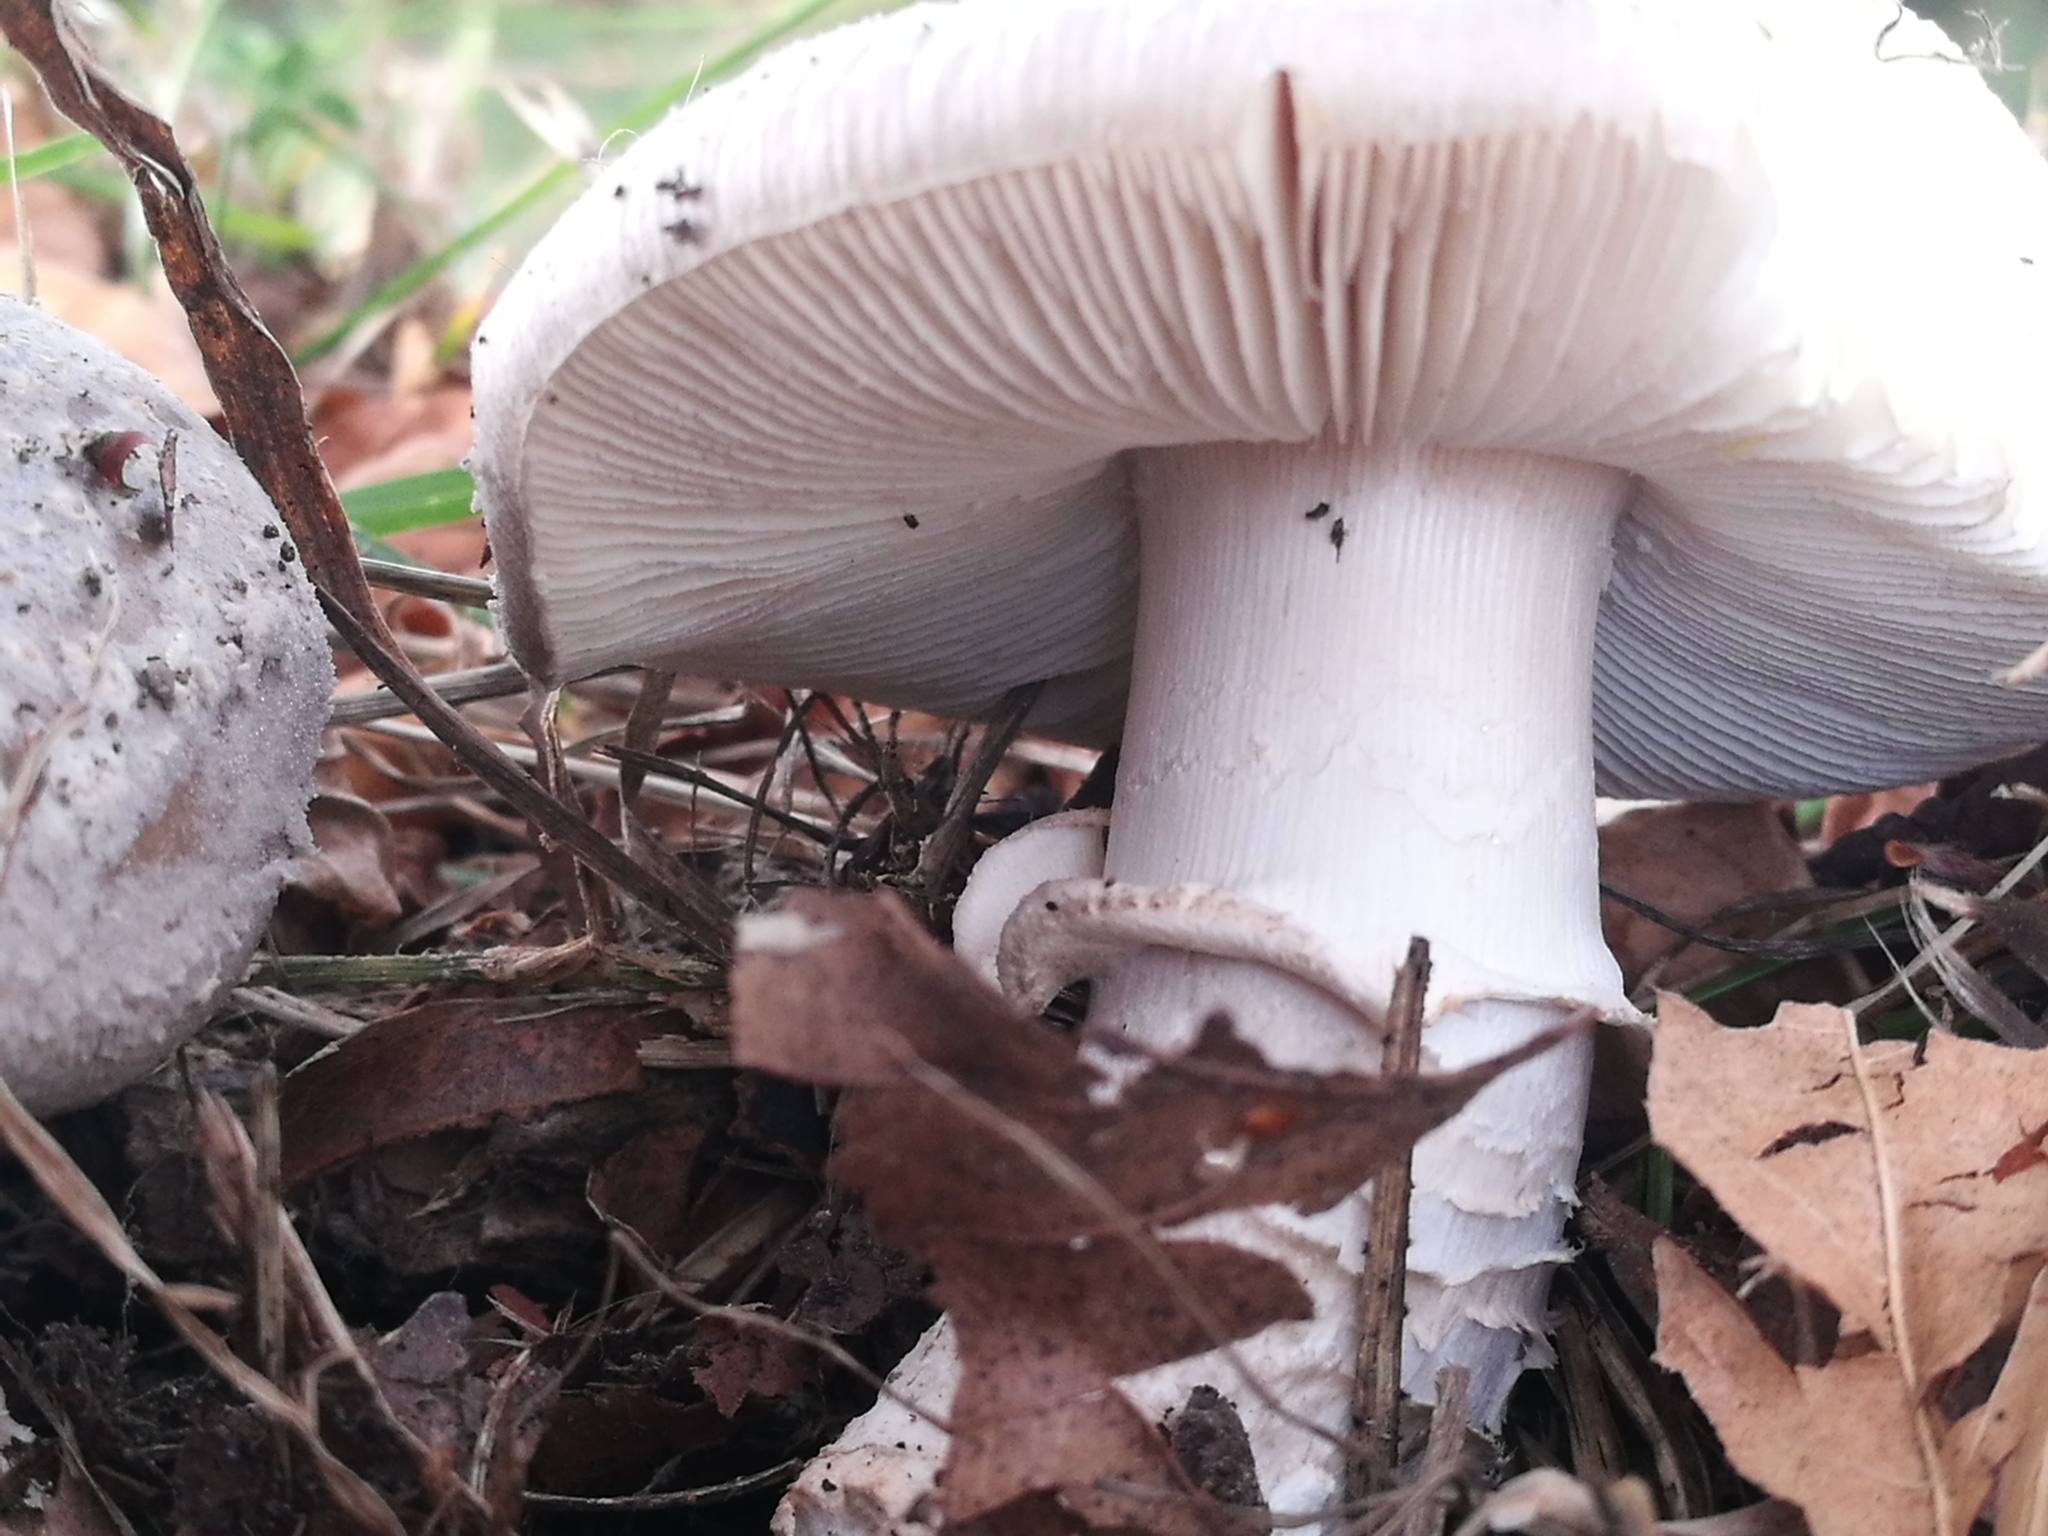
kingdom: Fungi
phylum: Basidiomycota
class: Agaricomycetes
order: Agaricales
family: Amanitaceae
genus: Amanita
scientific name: Amanita excelsa
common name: European false blusher
